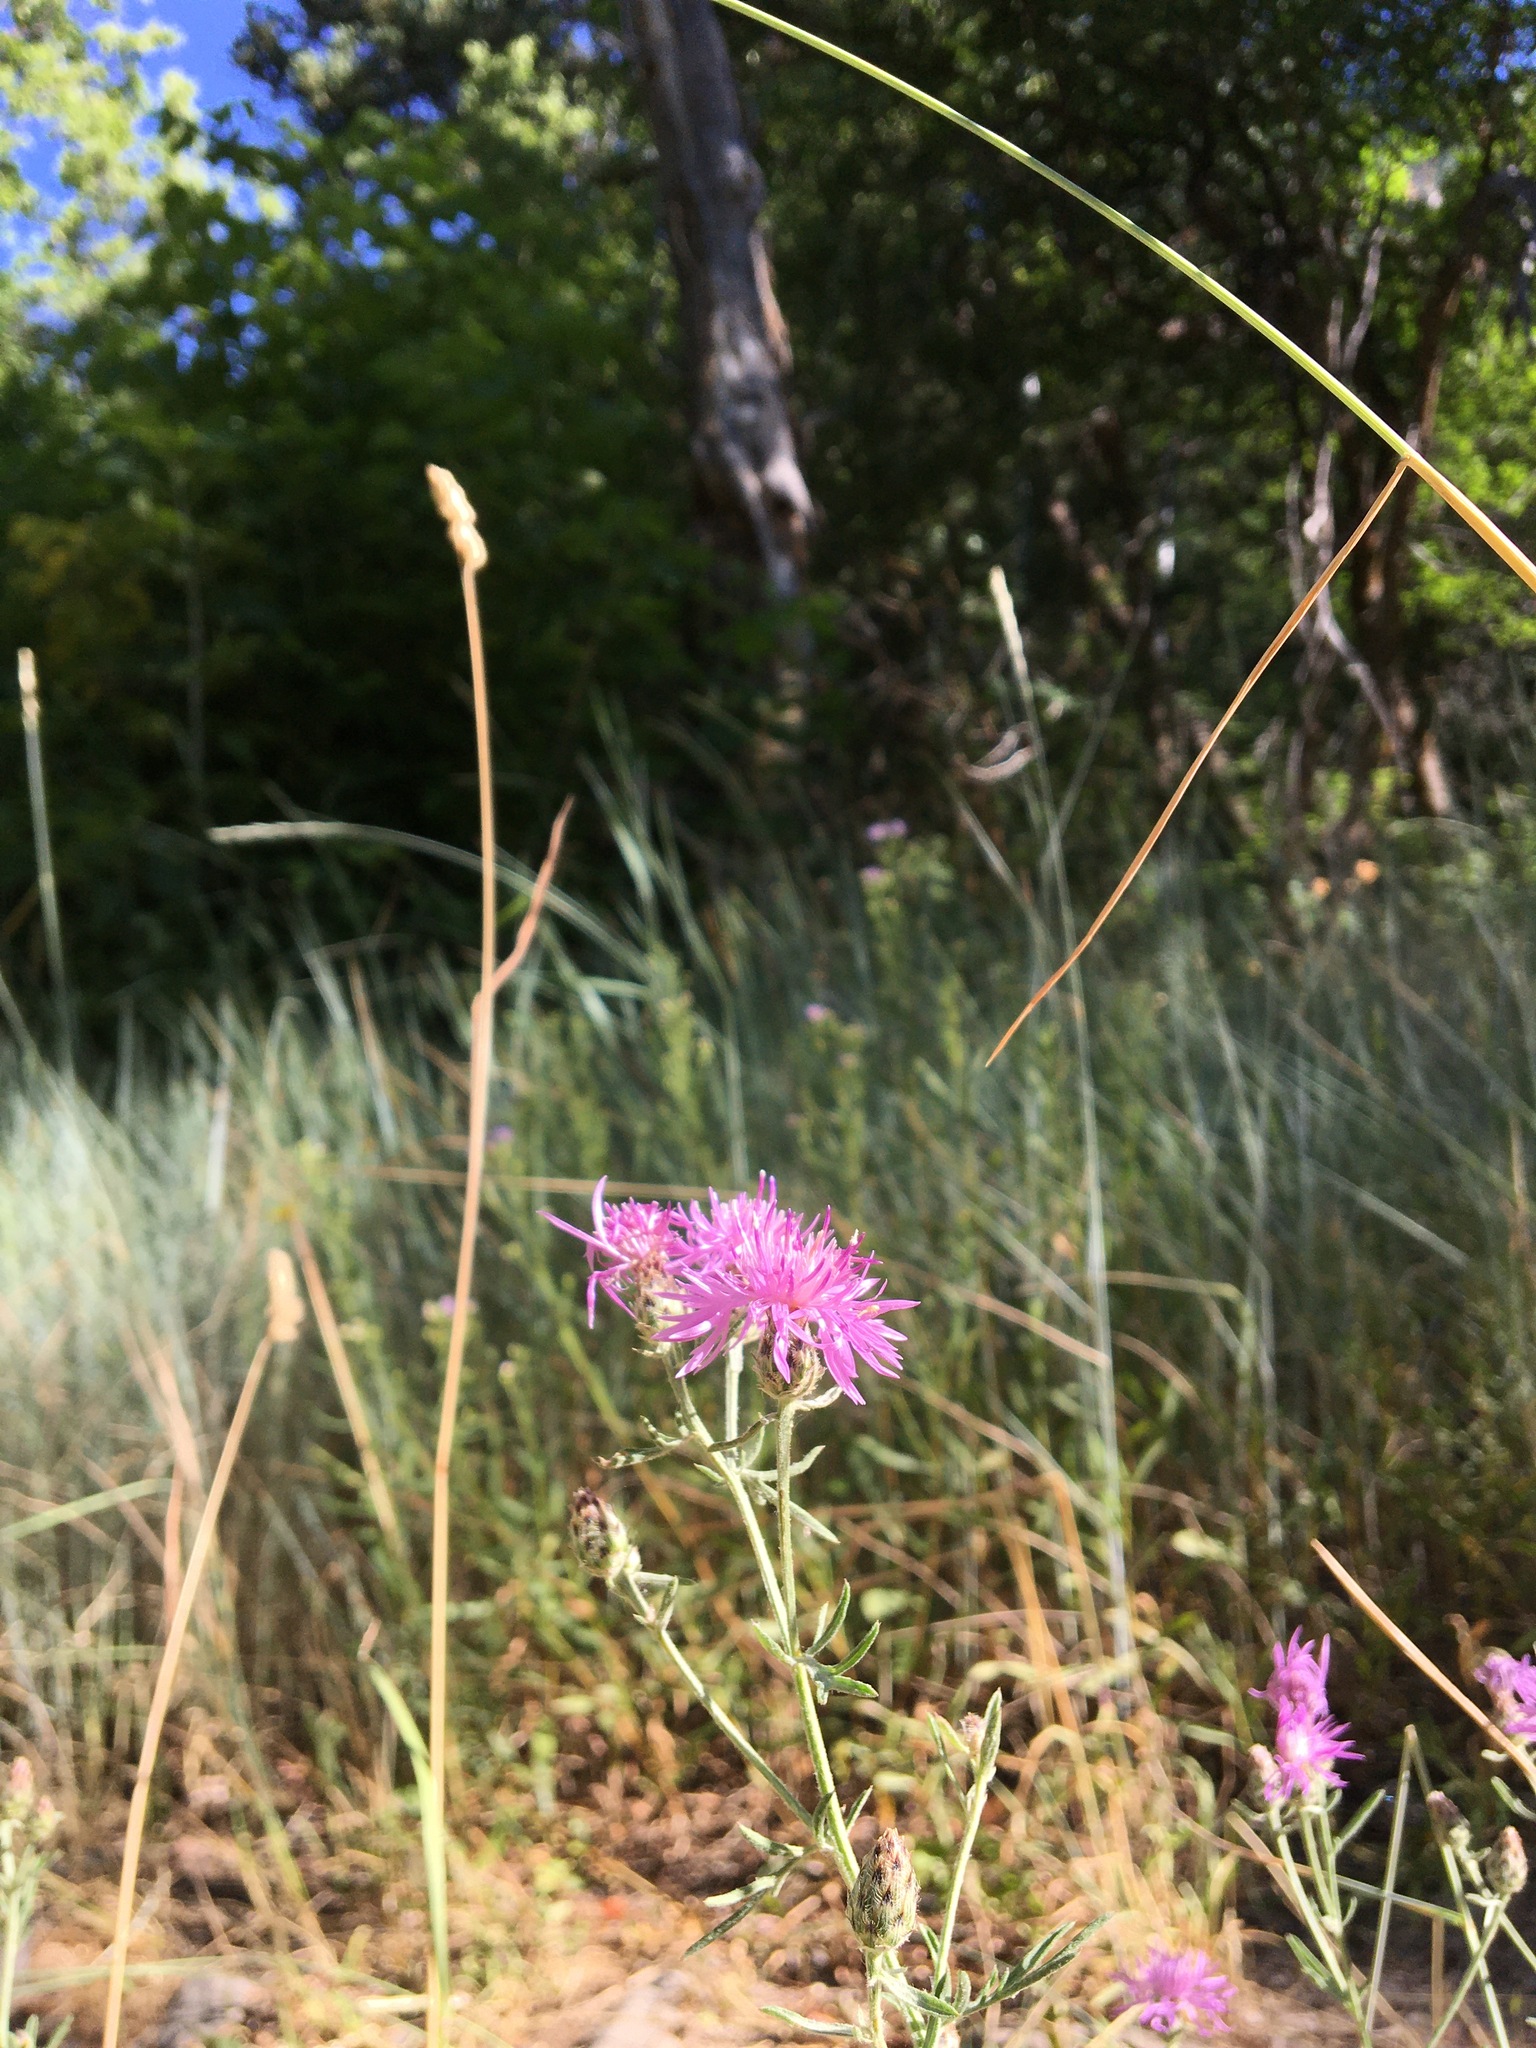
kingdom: Plantae
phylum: Tracheophyta
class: Magnoliopsida
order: Asterales
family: Asteraceae
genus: Centaurea
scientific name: Centaurea stoebe
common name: Spotted knapweed
